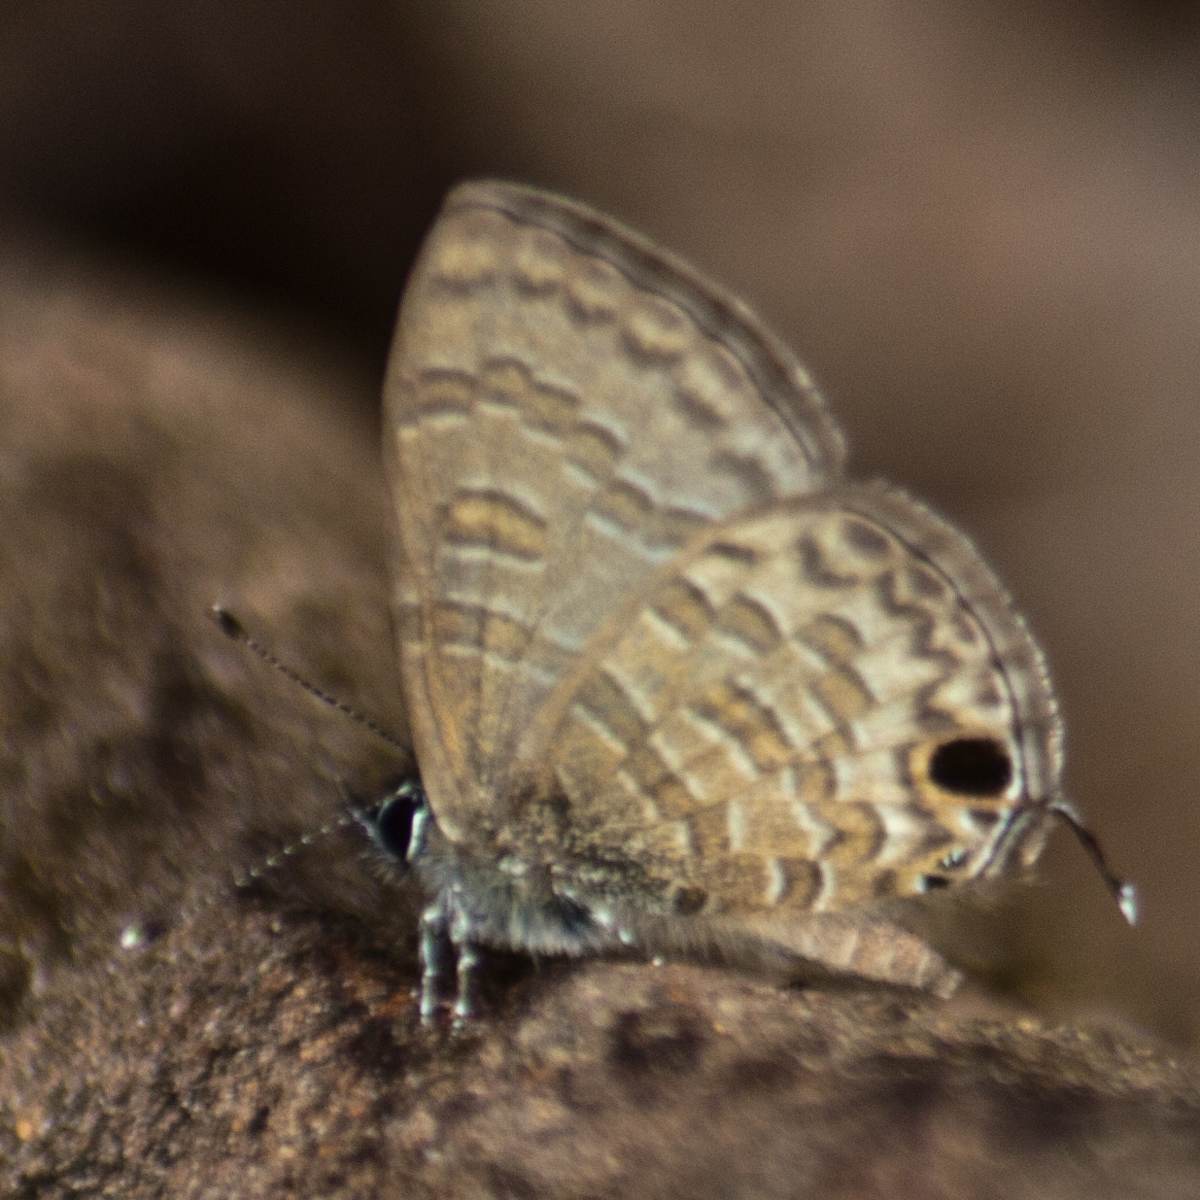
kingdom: Animalia
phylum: Arthropoda
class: Insecta
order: Lepidoptera
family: Lycaenidae
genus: Prosotas
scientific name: Prosotas nora
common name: Common line blue
